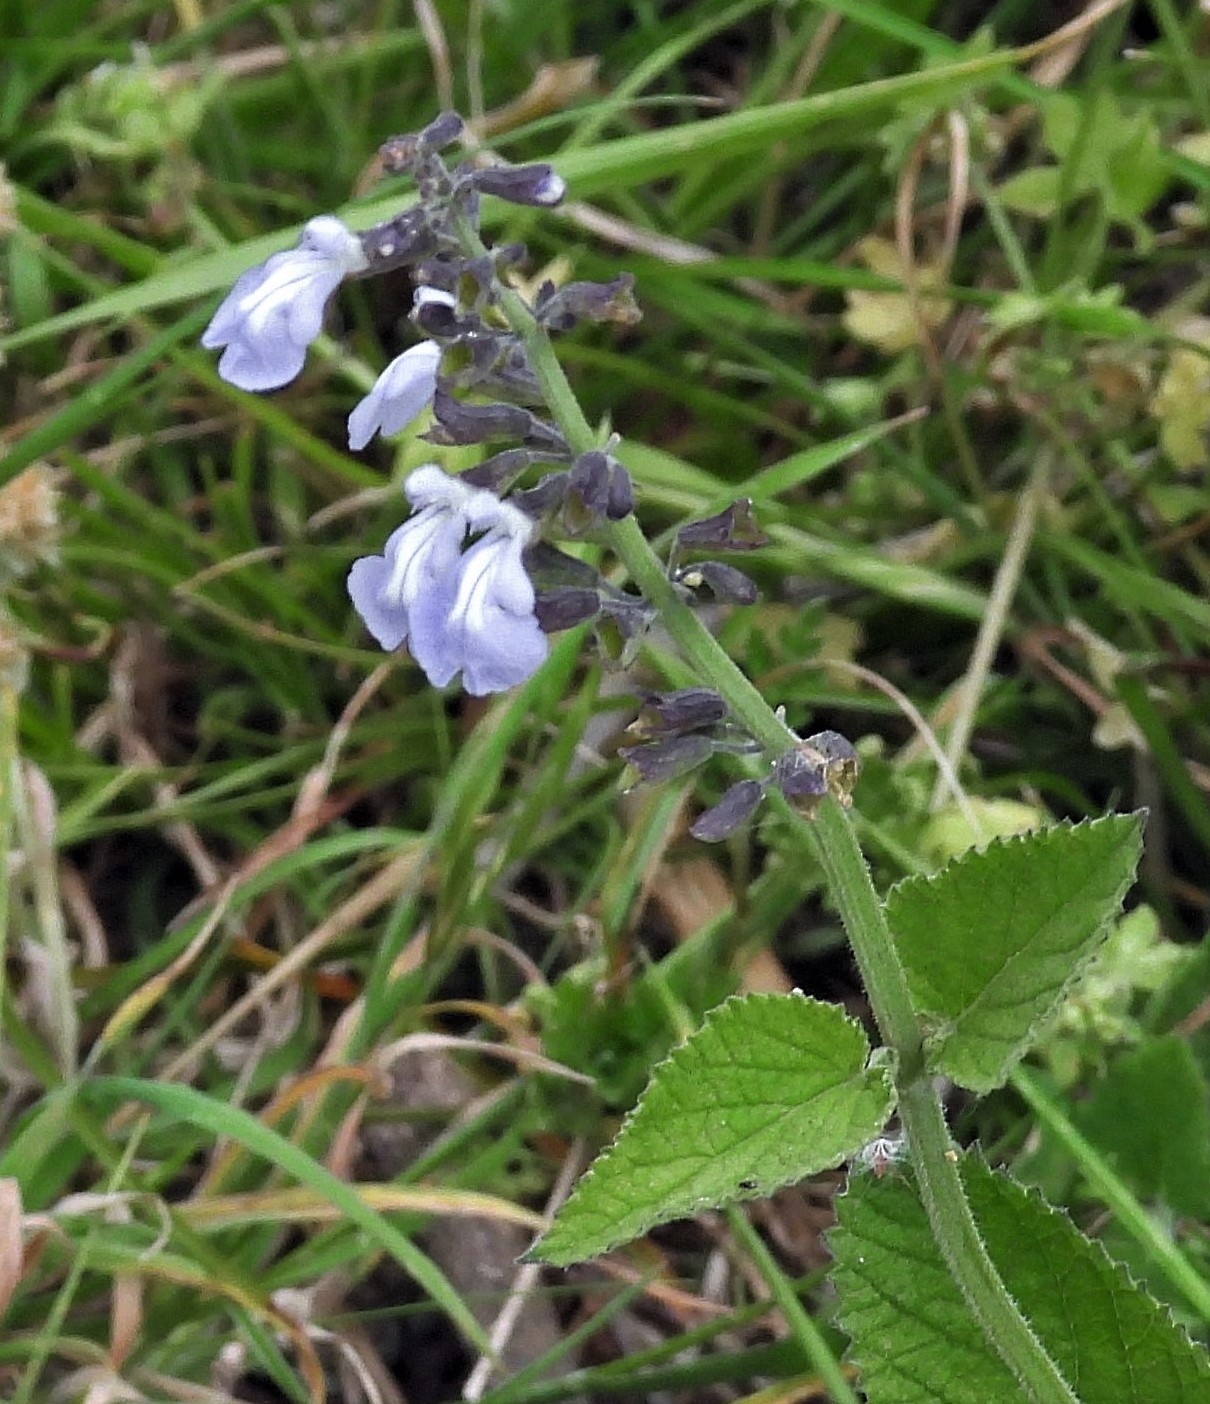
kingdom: Plantae
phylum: Tracheophyta
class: Magnoliopsida
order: Lamiales
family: Lamiaceae
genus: Salvia
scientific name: Salvia cardiophylla
